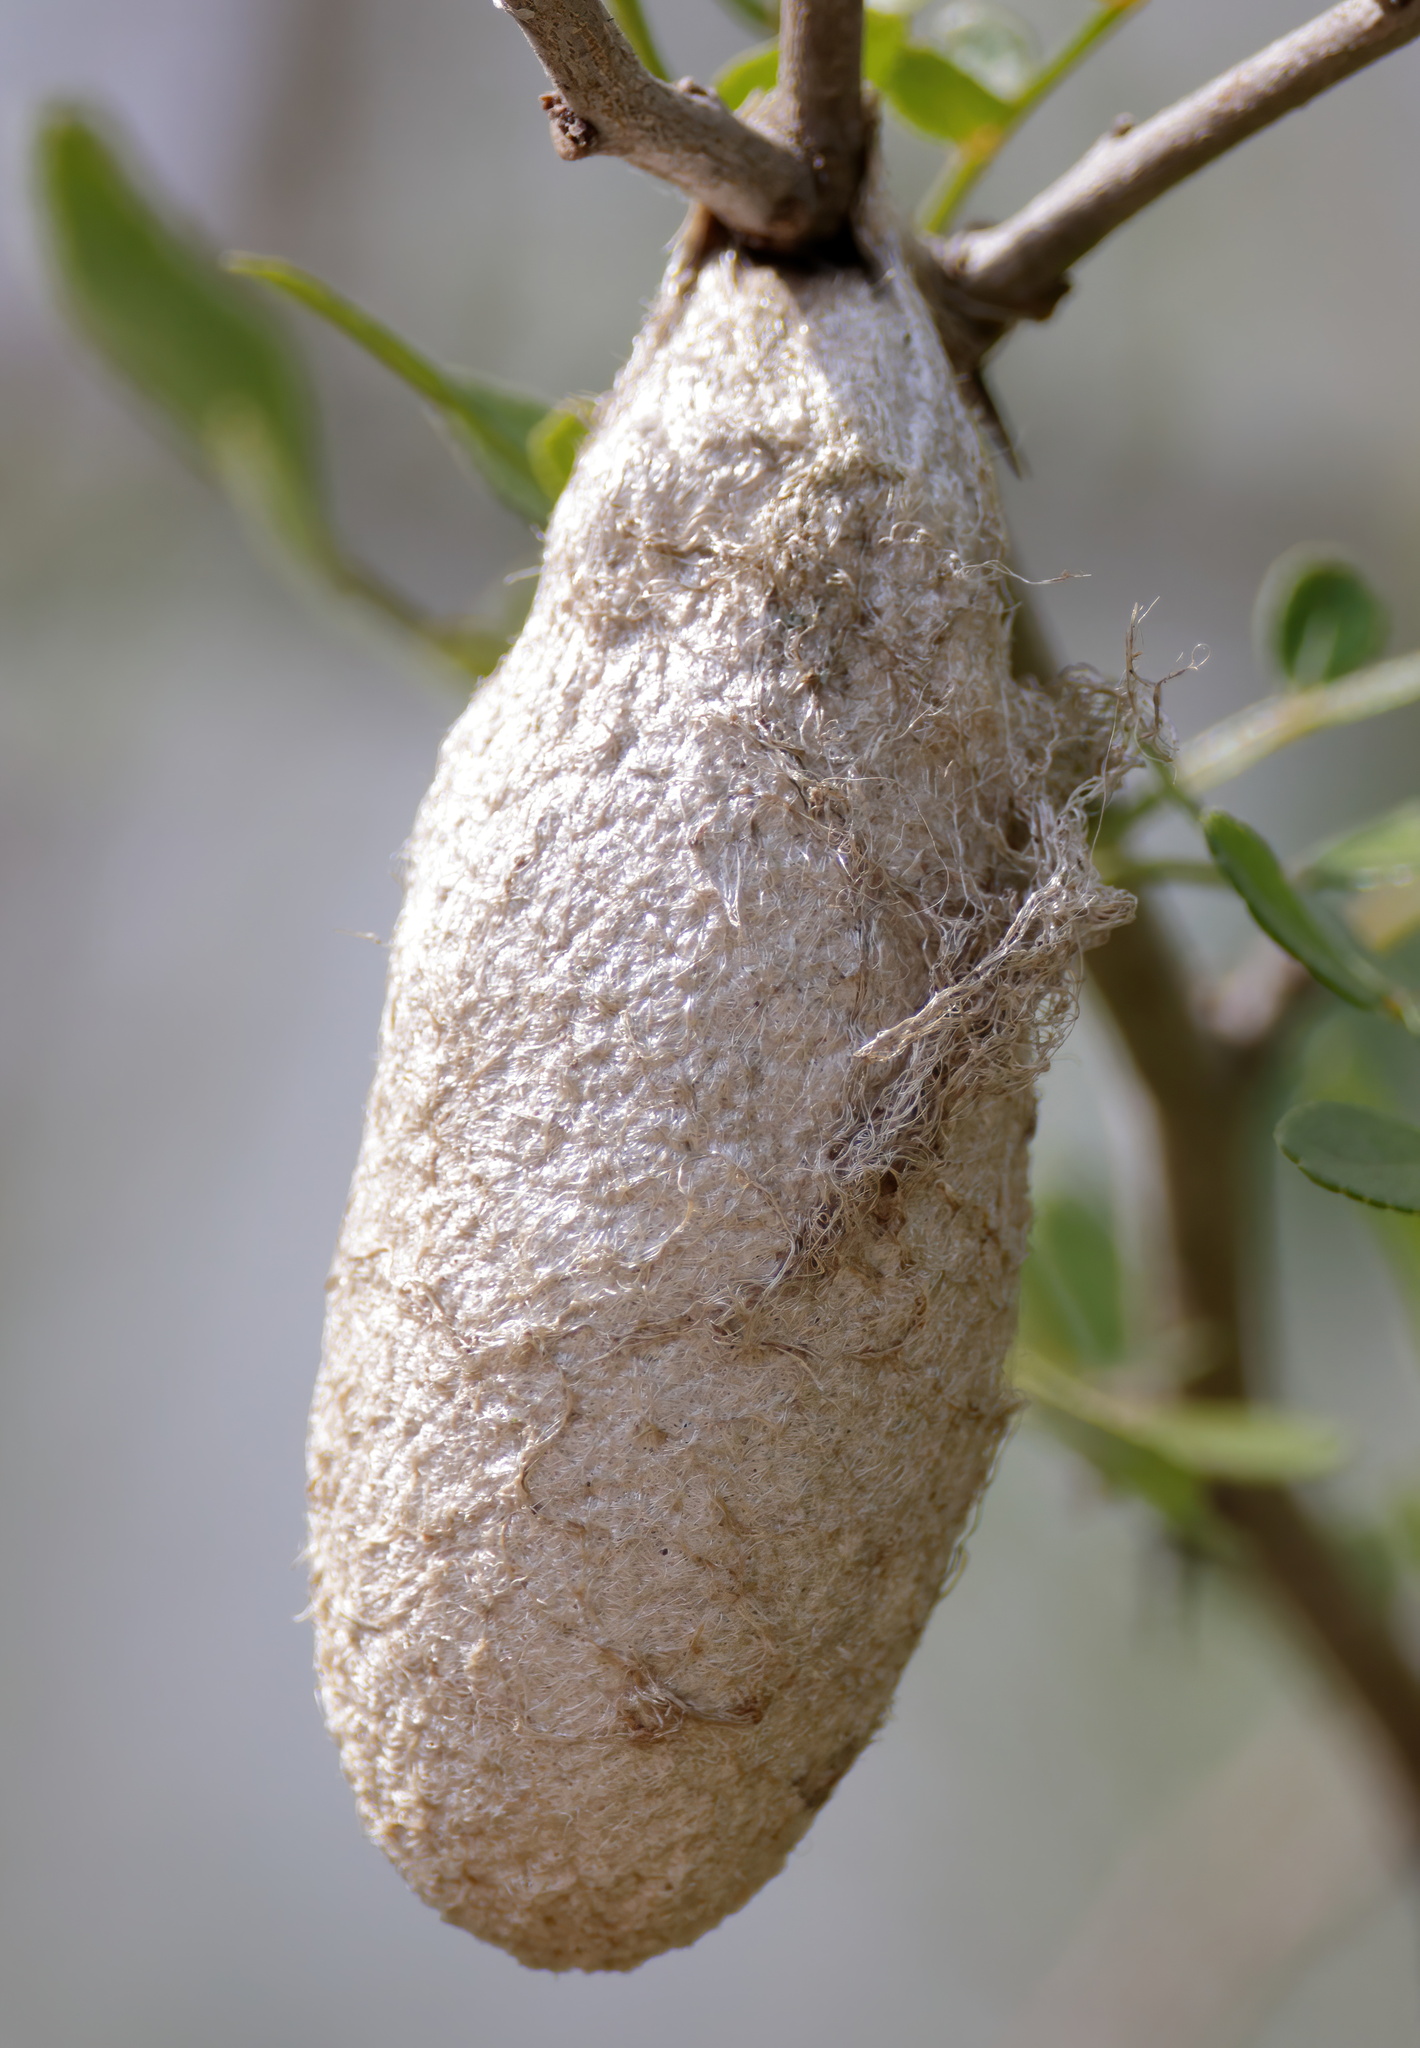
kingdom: Animalia
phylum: Arthropoda
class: Insecta
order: Lepidoptera
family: Saturniidae
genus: Rothschildia
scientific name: Rothschildia lebeau
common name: Lebeau's rothschildia
